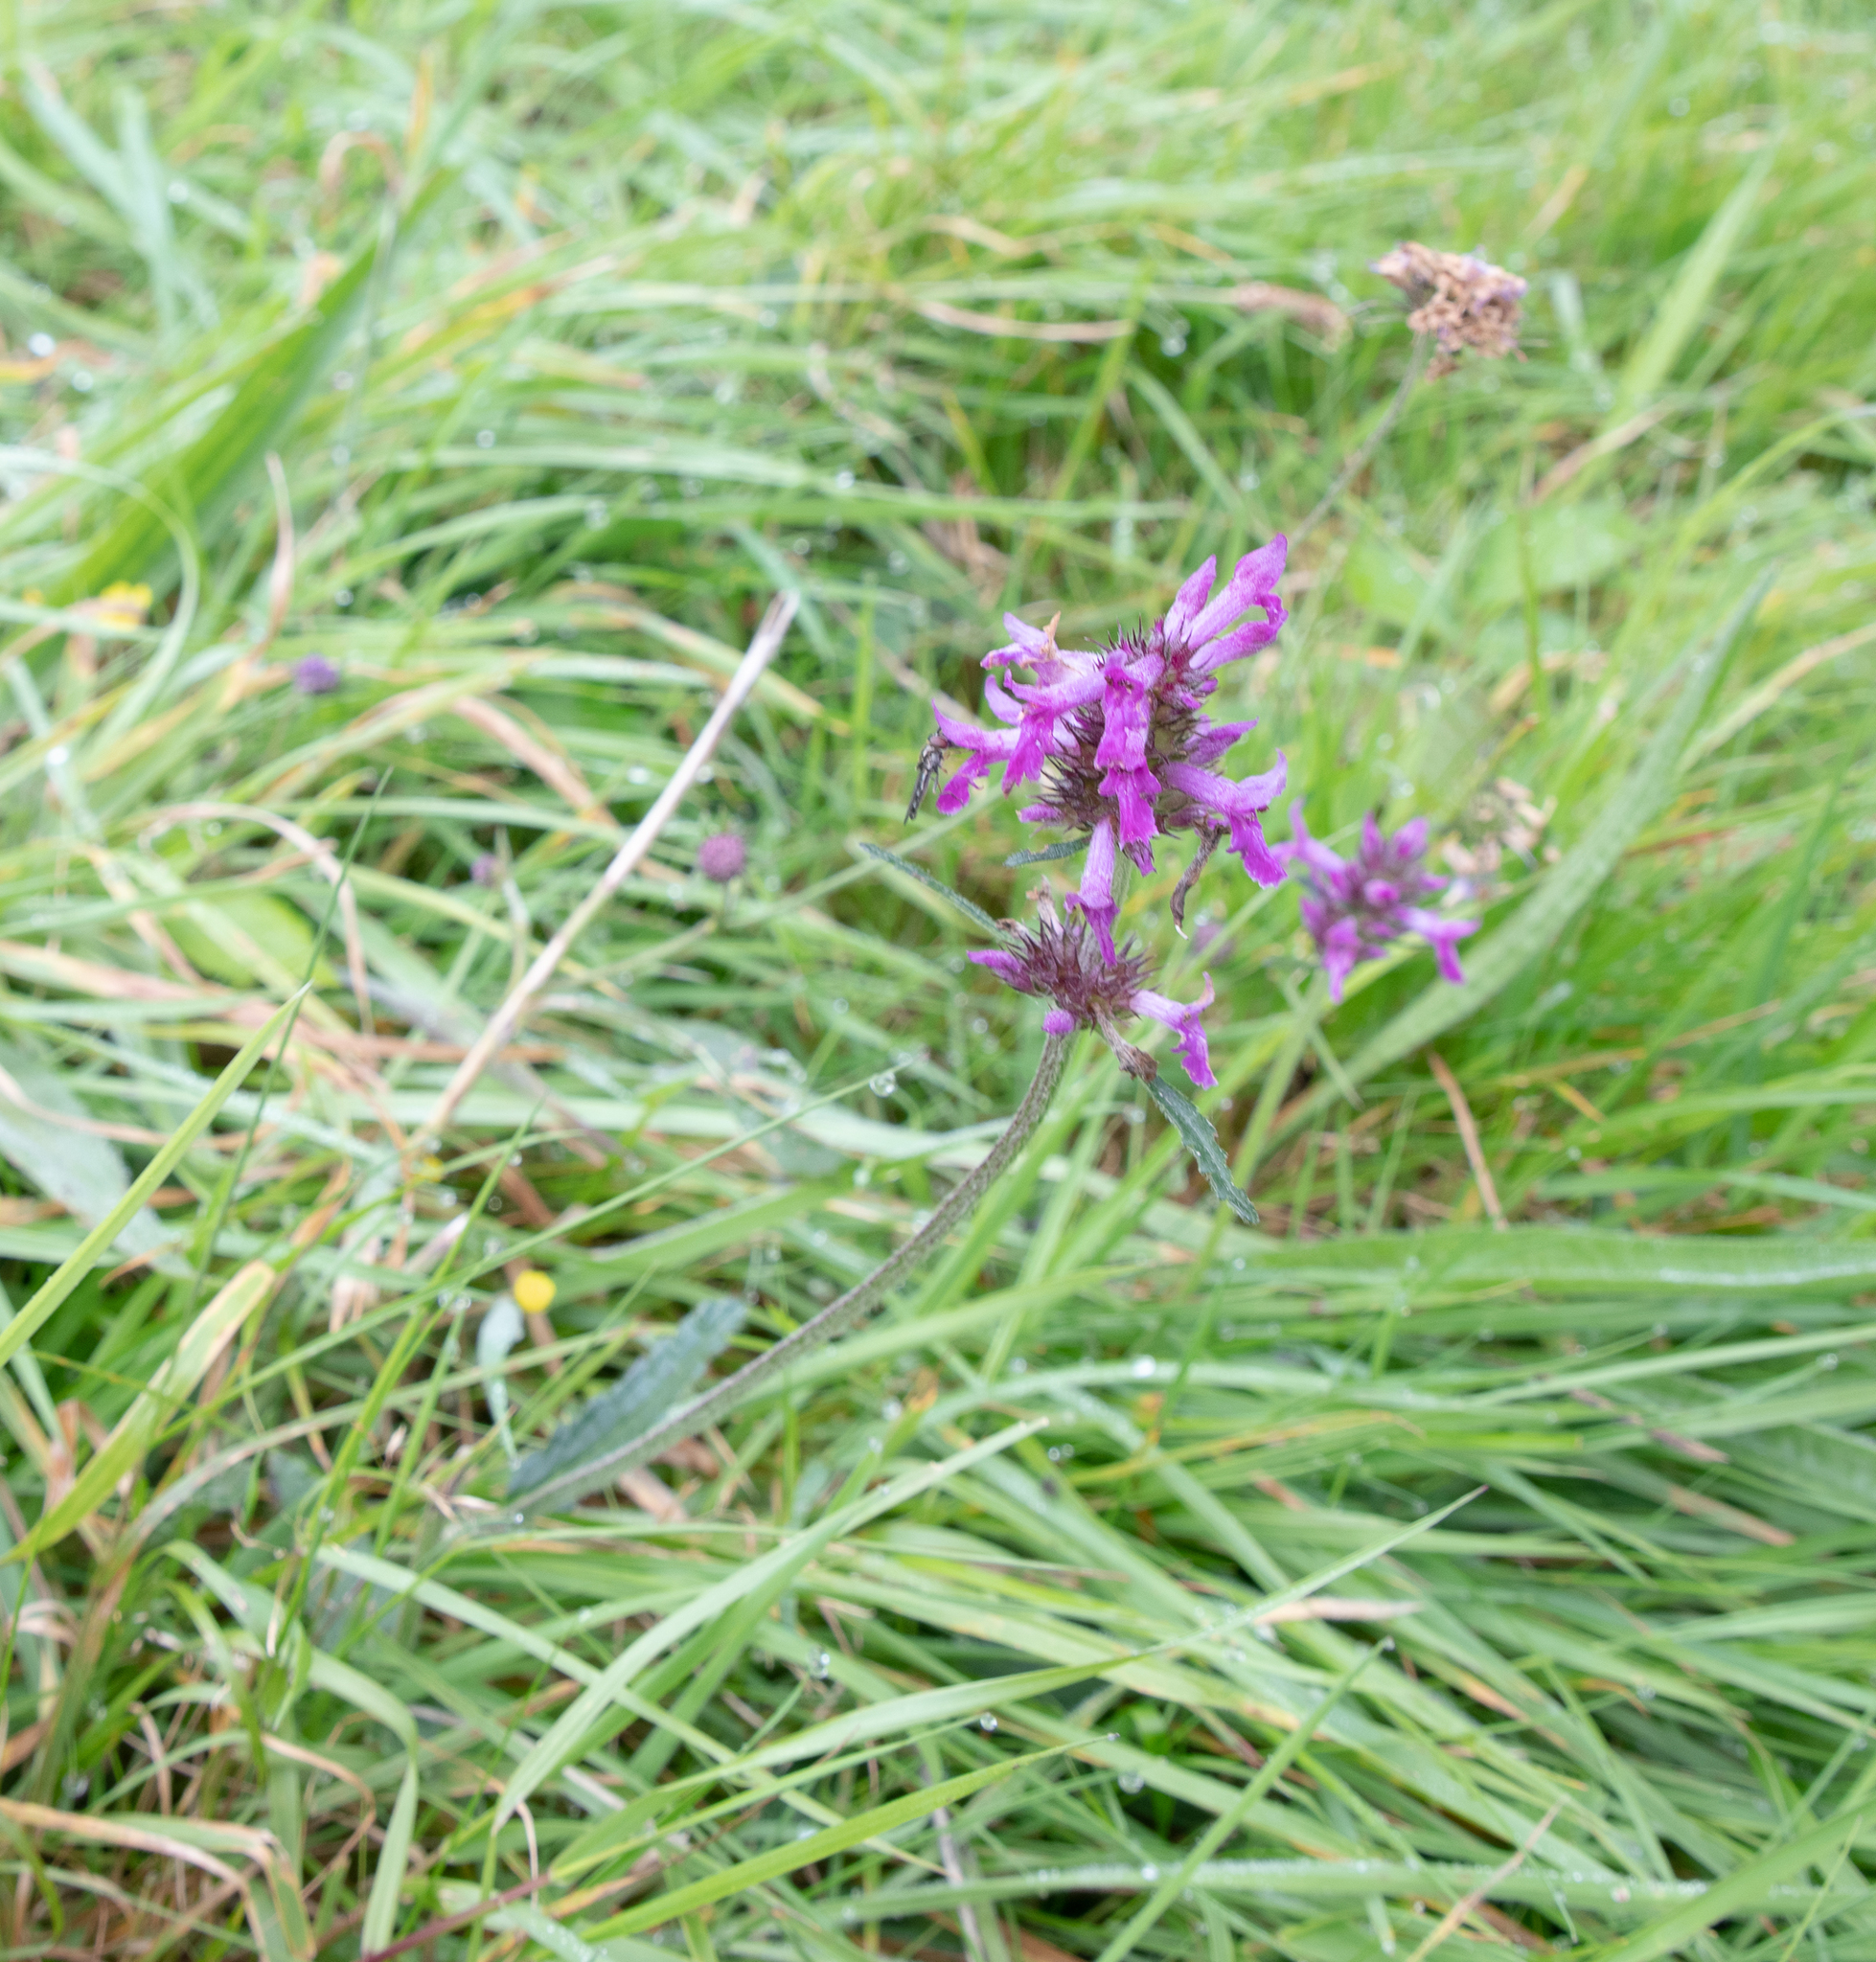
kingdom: Plantae
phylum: Tracheophyta
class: Magnoliopsida
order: Lamiales
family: Lamiaceae
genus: Betonica
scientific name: Betonica officinalis
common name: Bishop's-wort
